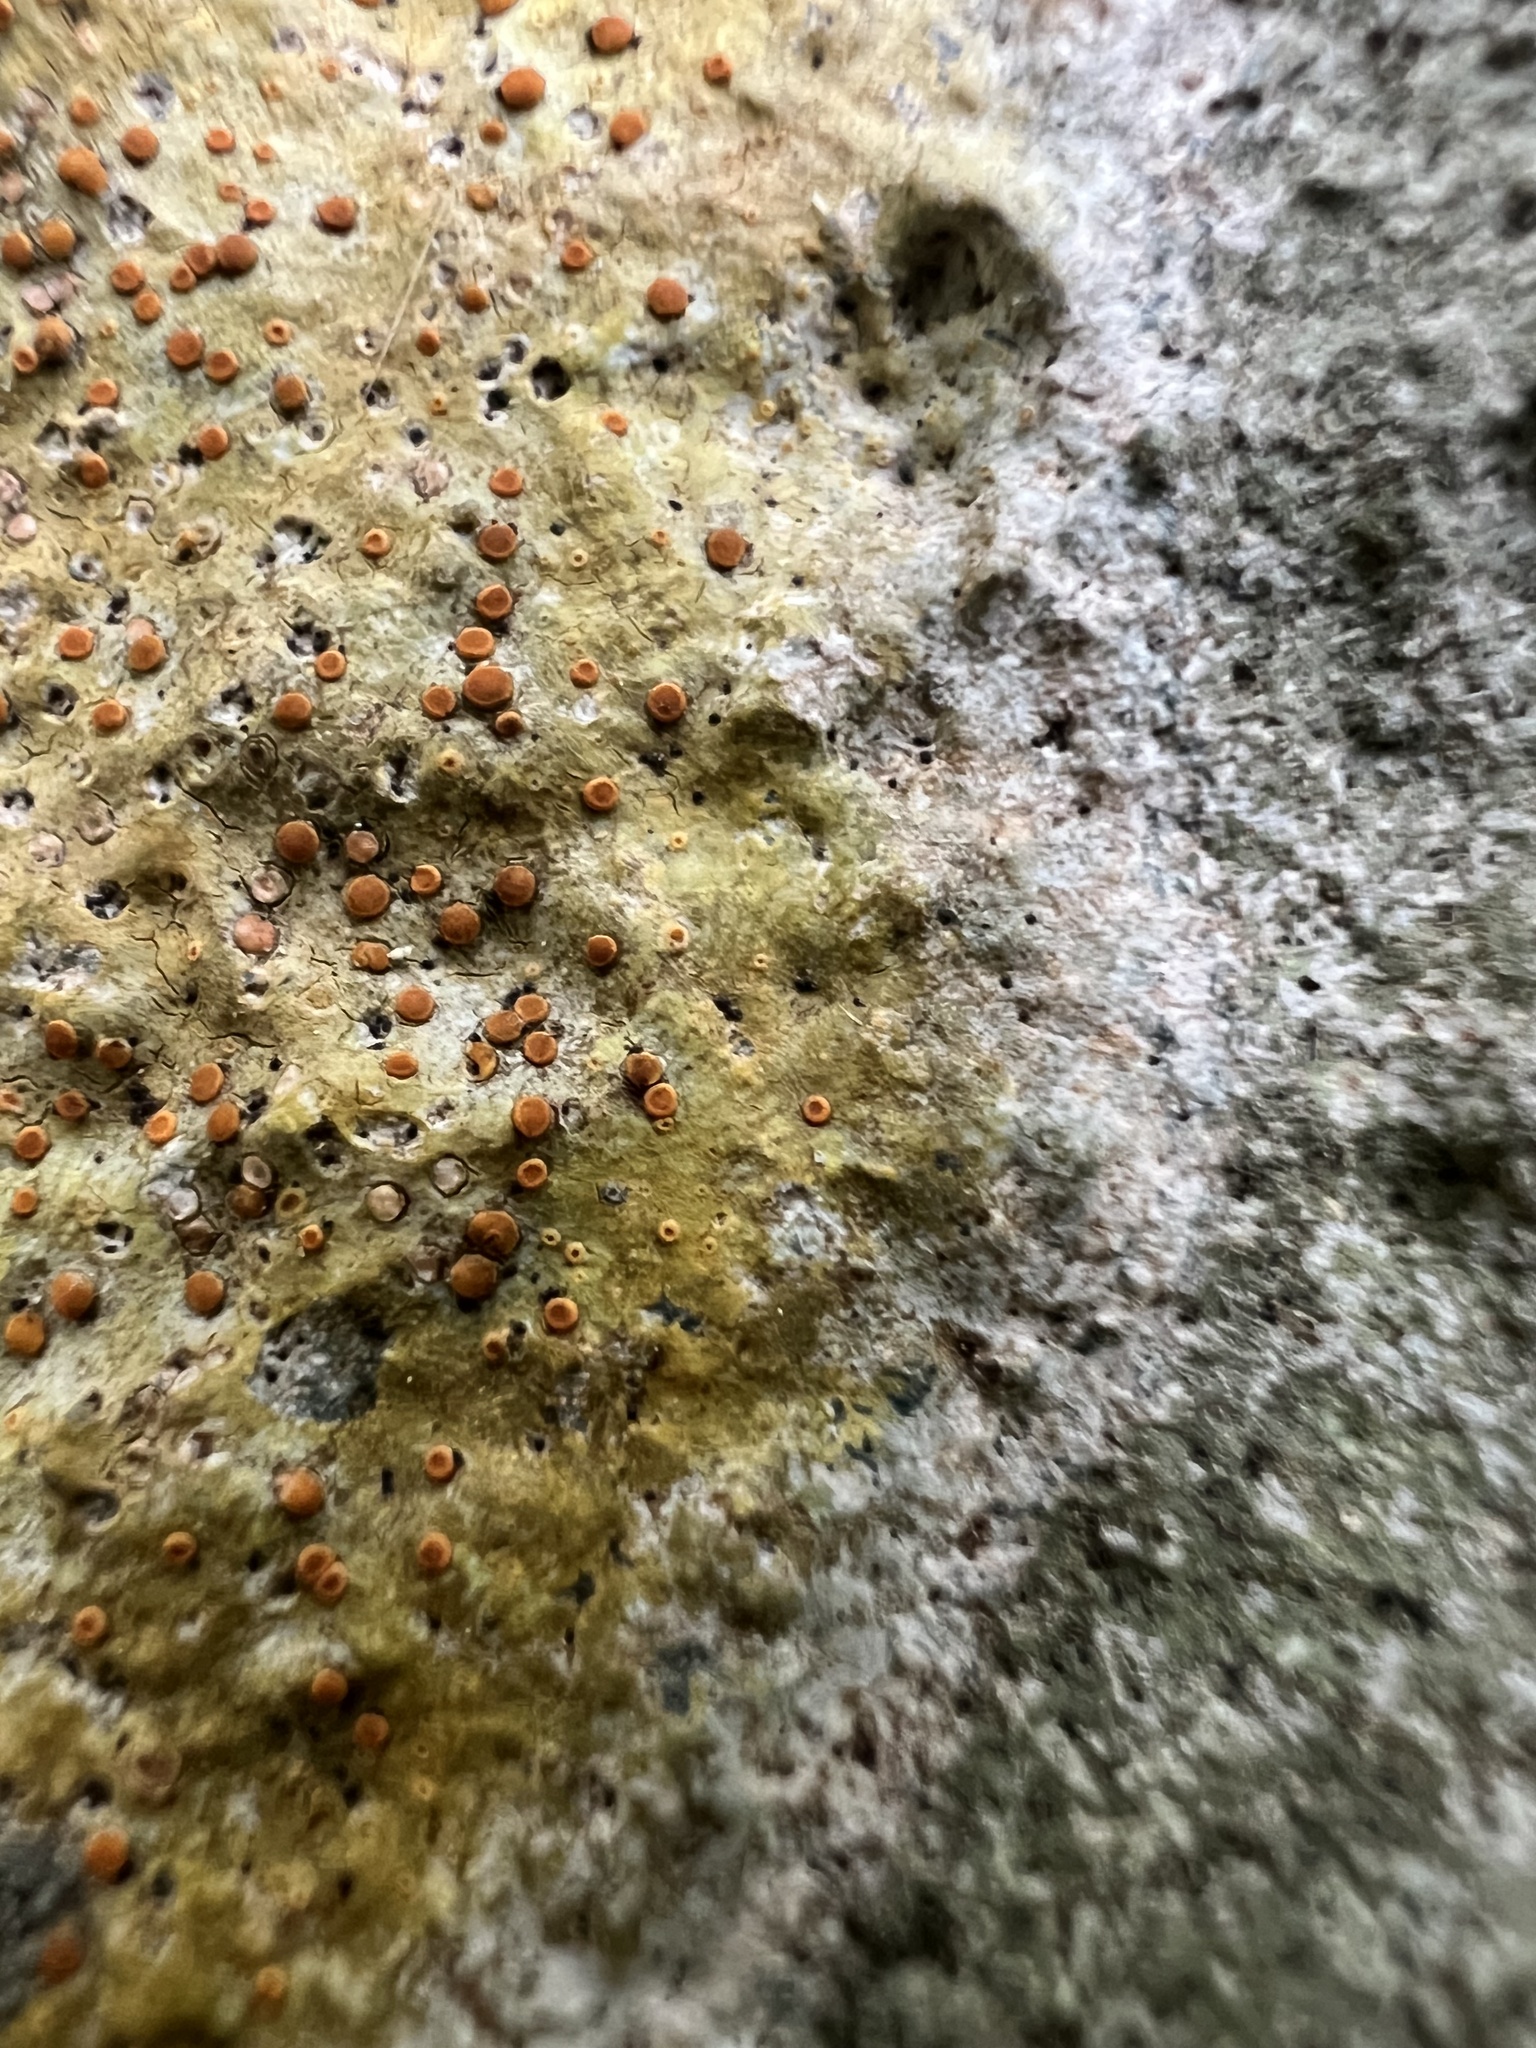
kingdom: Fungi
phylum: Ascomycota
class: Lecanoromycetes
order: Teloschistales
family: Teloschistaceae
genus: Gyalolechia
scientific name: Gyalolechia flavovirescens
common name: Sulphur firedot
